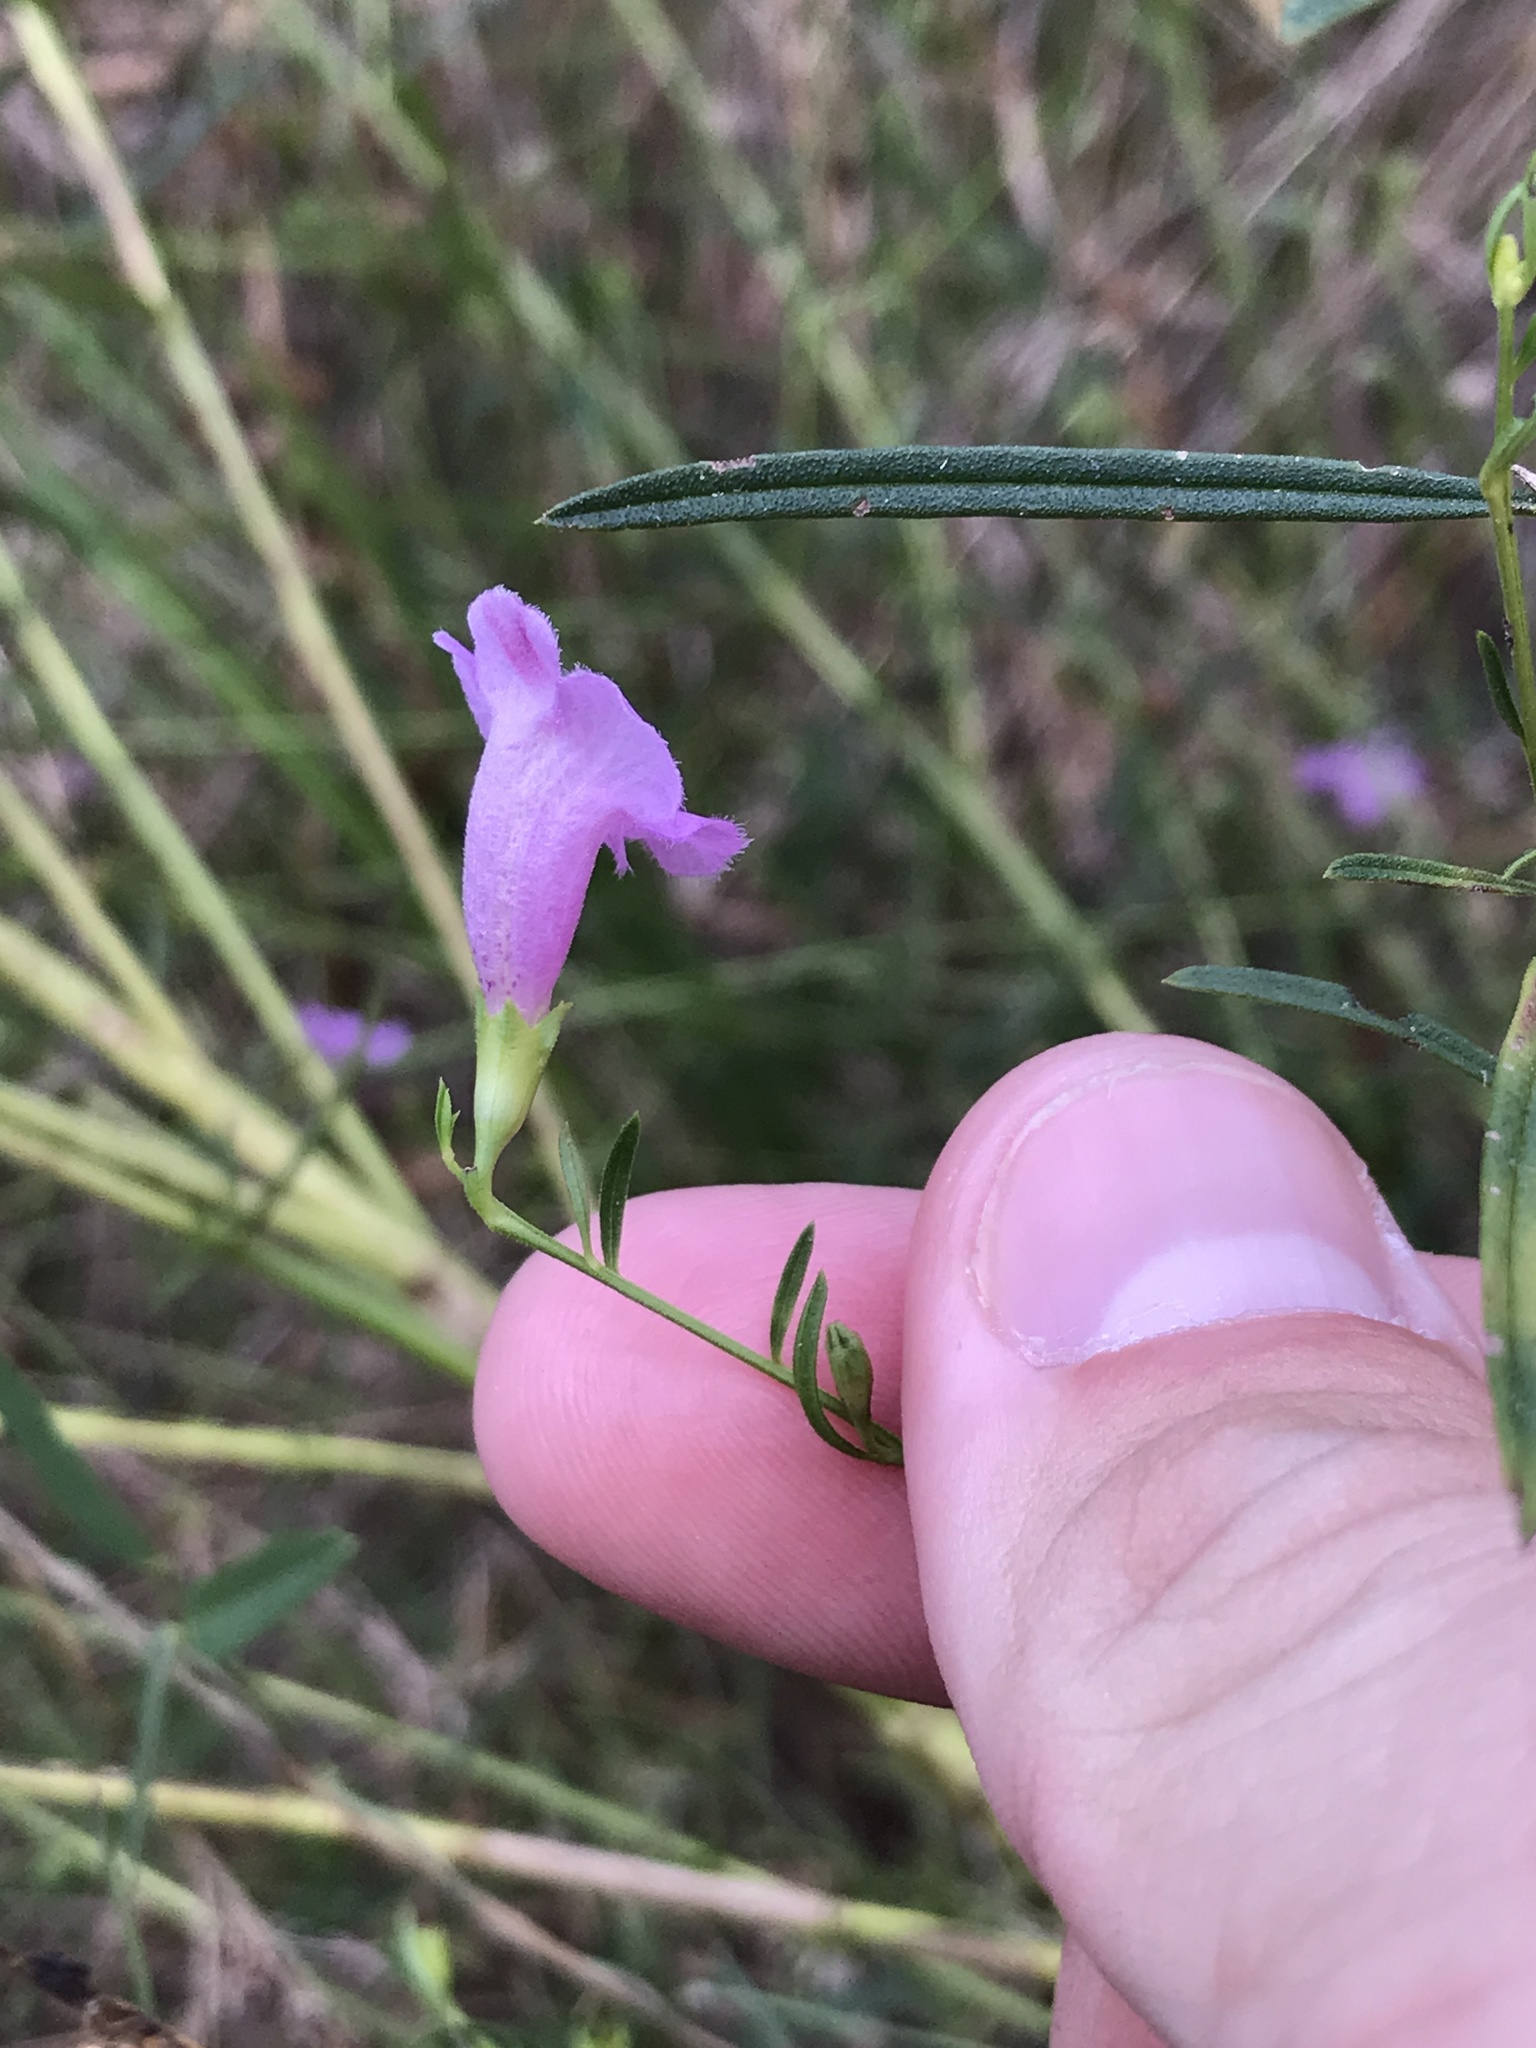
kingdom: Plantae
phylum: Tracheophyta
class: Magnoliopsida
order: Lamiales
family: Orobanchaceae
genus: Agalinis
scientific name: Agalinis purpurea
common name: Purple false foxglove
